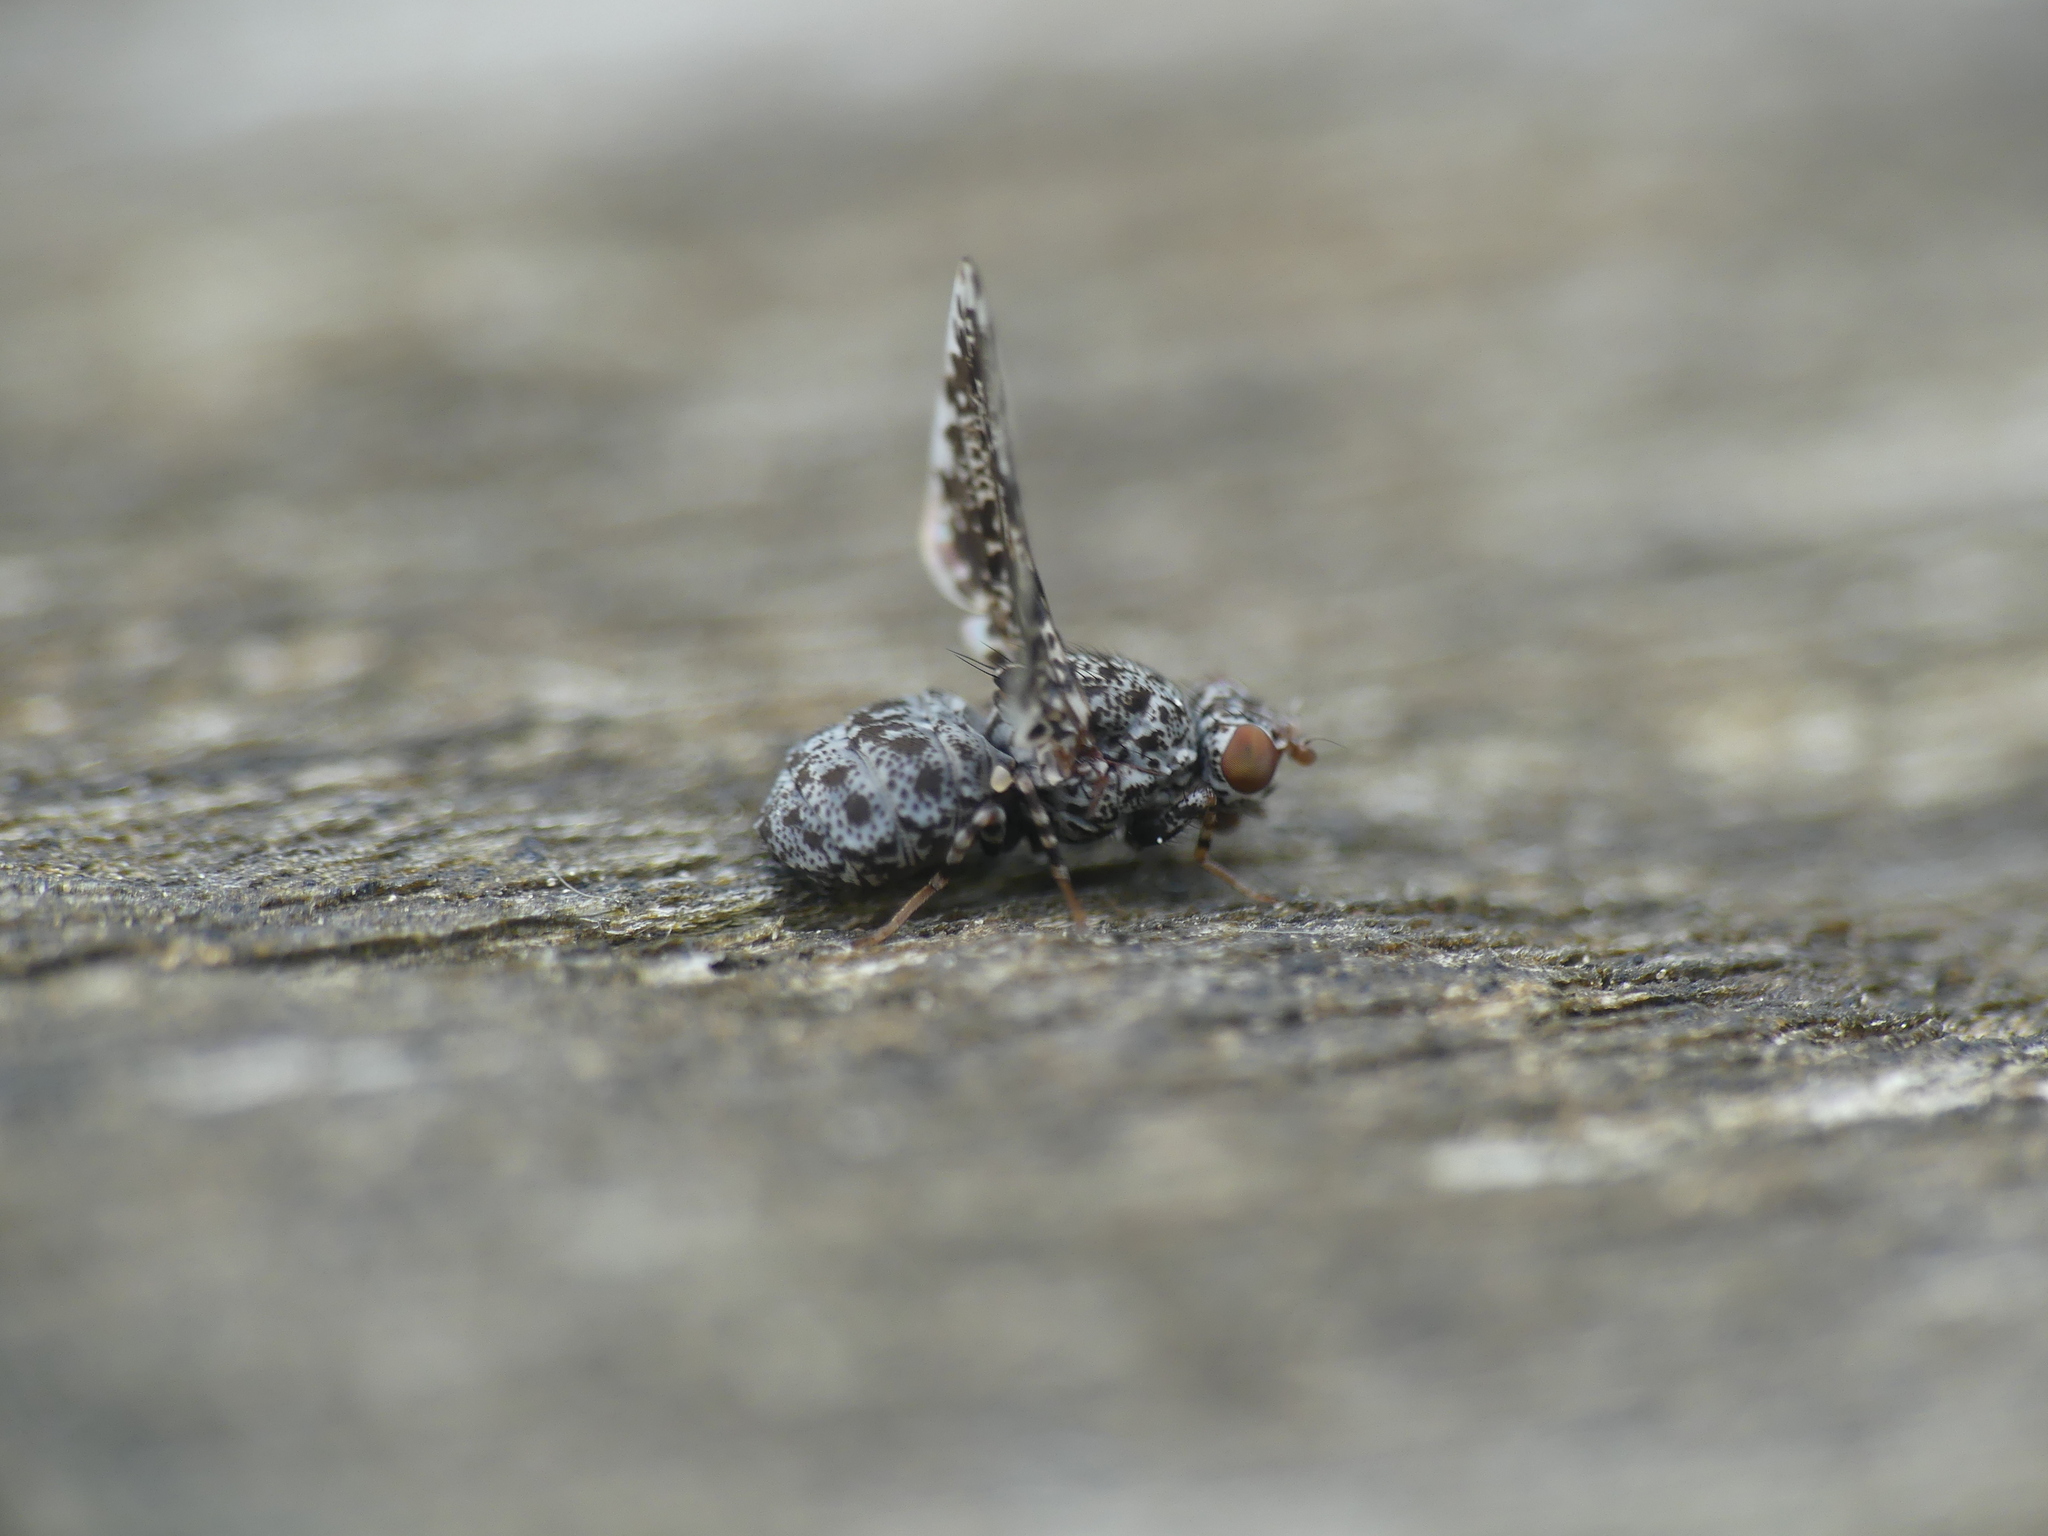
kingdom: Animalia
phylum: Arthropoda
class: Insecta
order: Diptera
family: Ulidiidae
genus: Callopistromyia
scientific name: Callopistromyia annulipes
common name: Peacock fly
